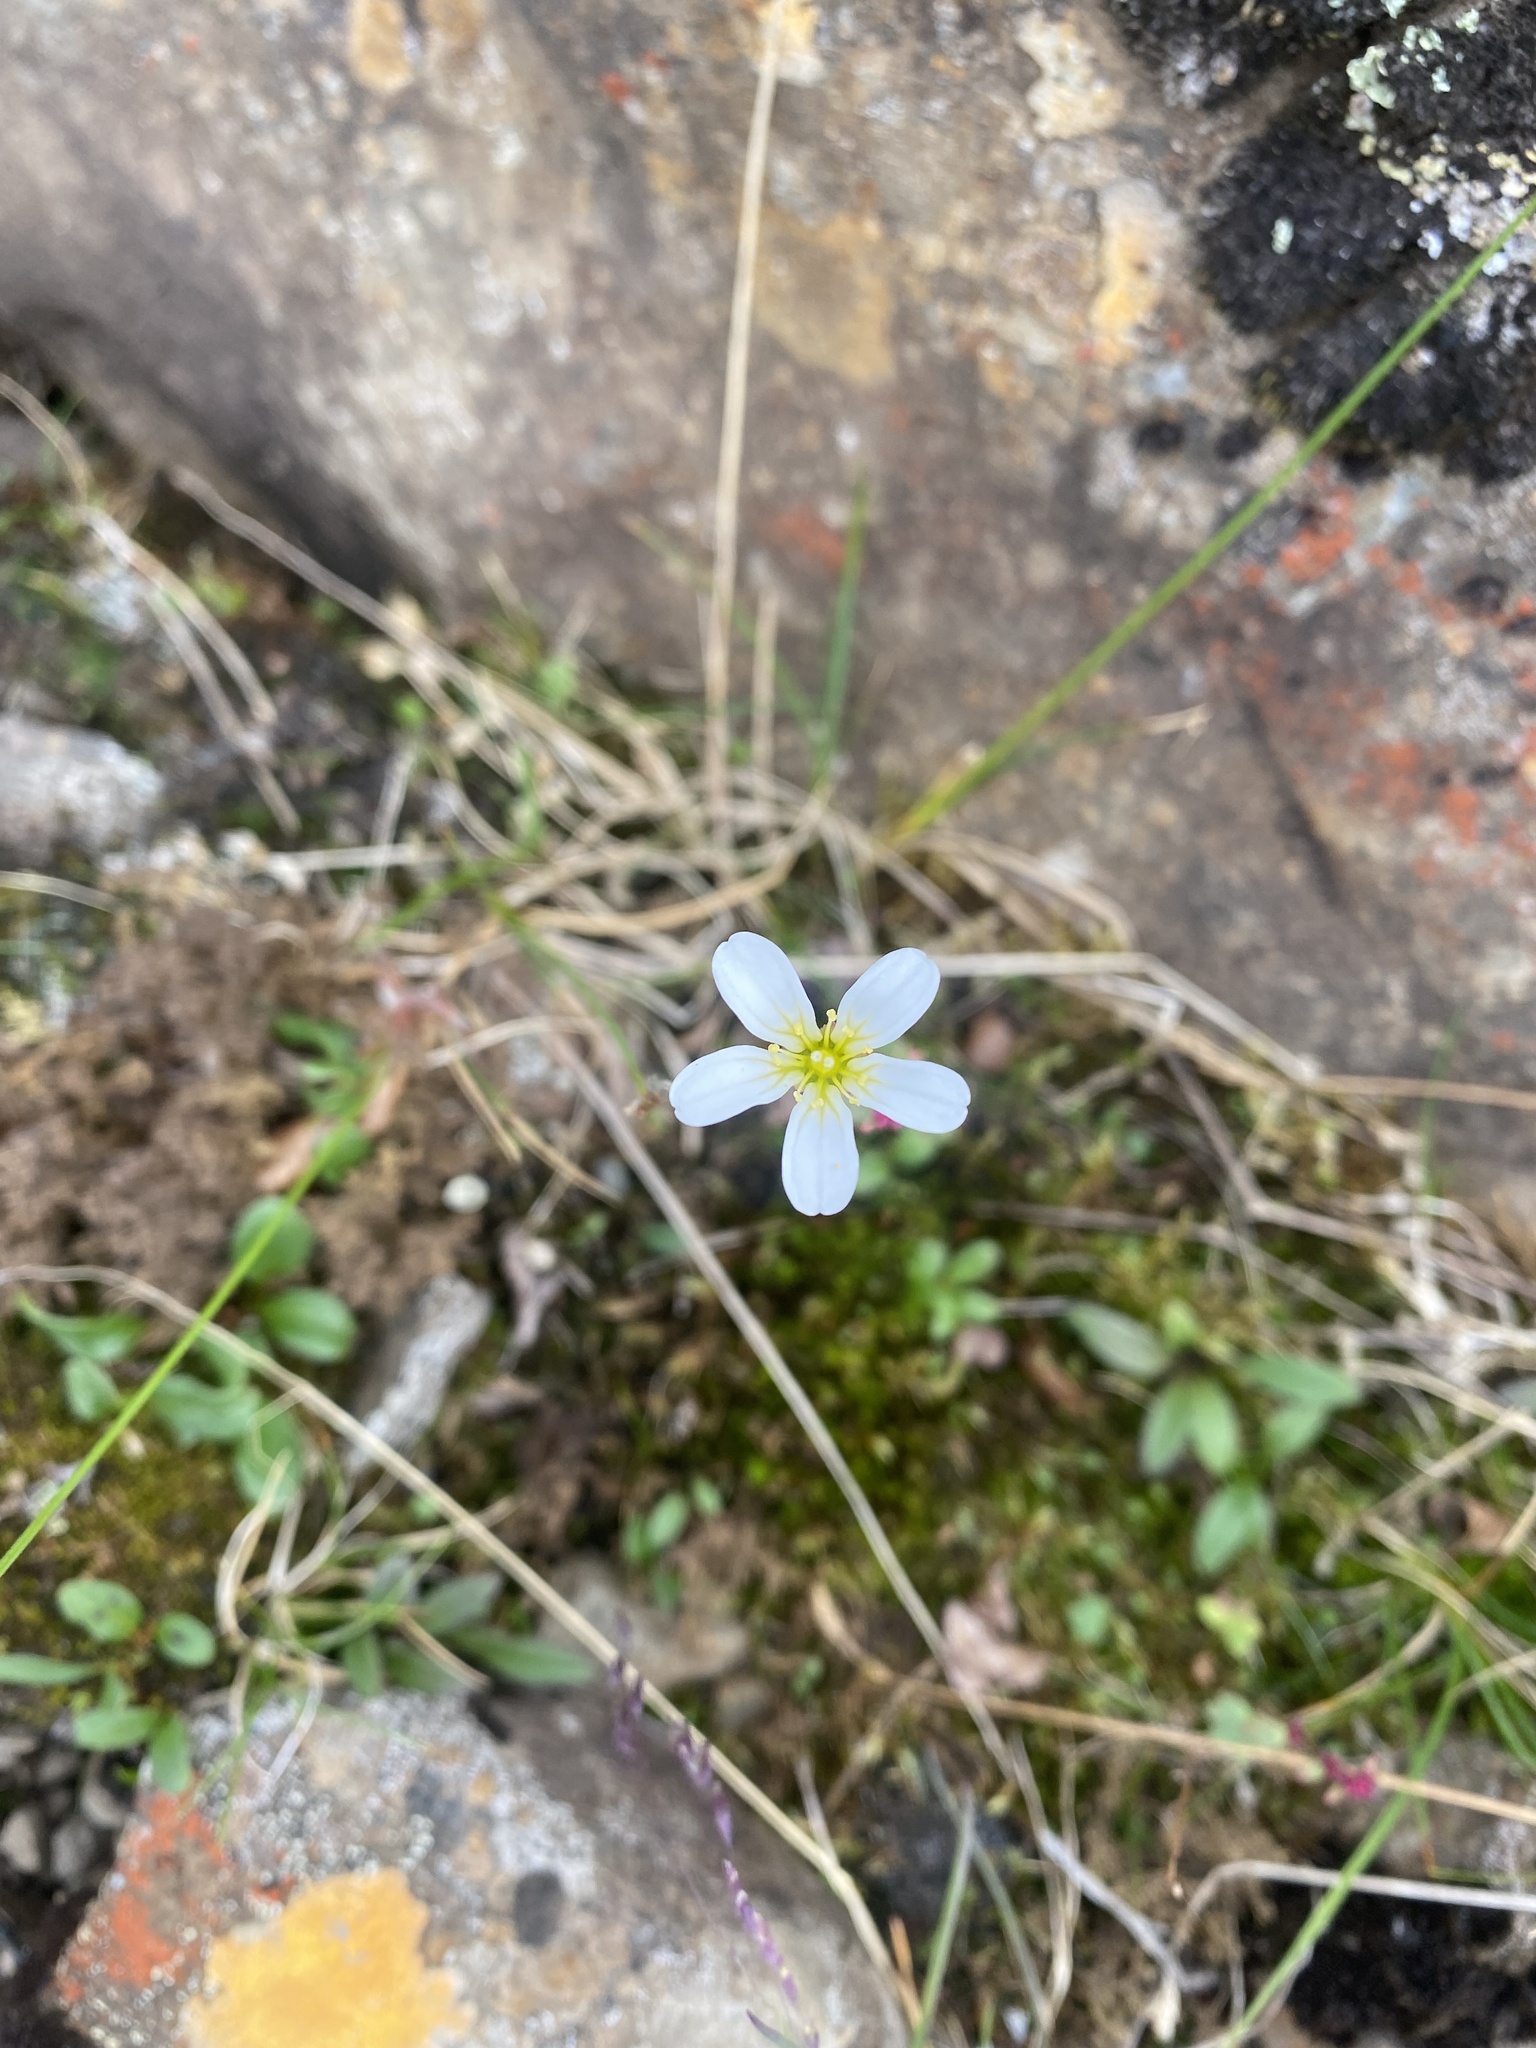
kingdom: Plantae
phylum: Tracheophyta
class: Magnoliopsida
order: Saxifragales
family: Saxifragaceae
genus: Saxifraga
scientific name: Saxifraga cernua
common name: Drooping saxifrage
